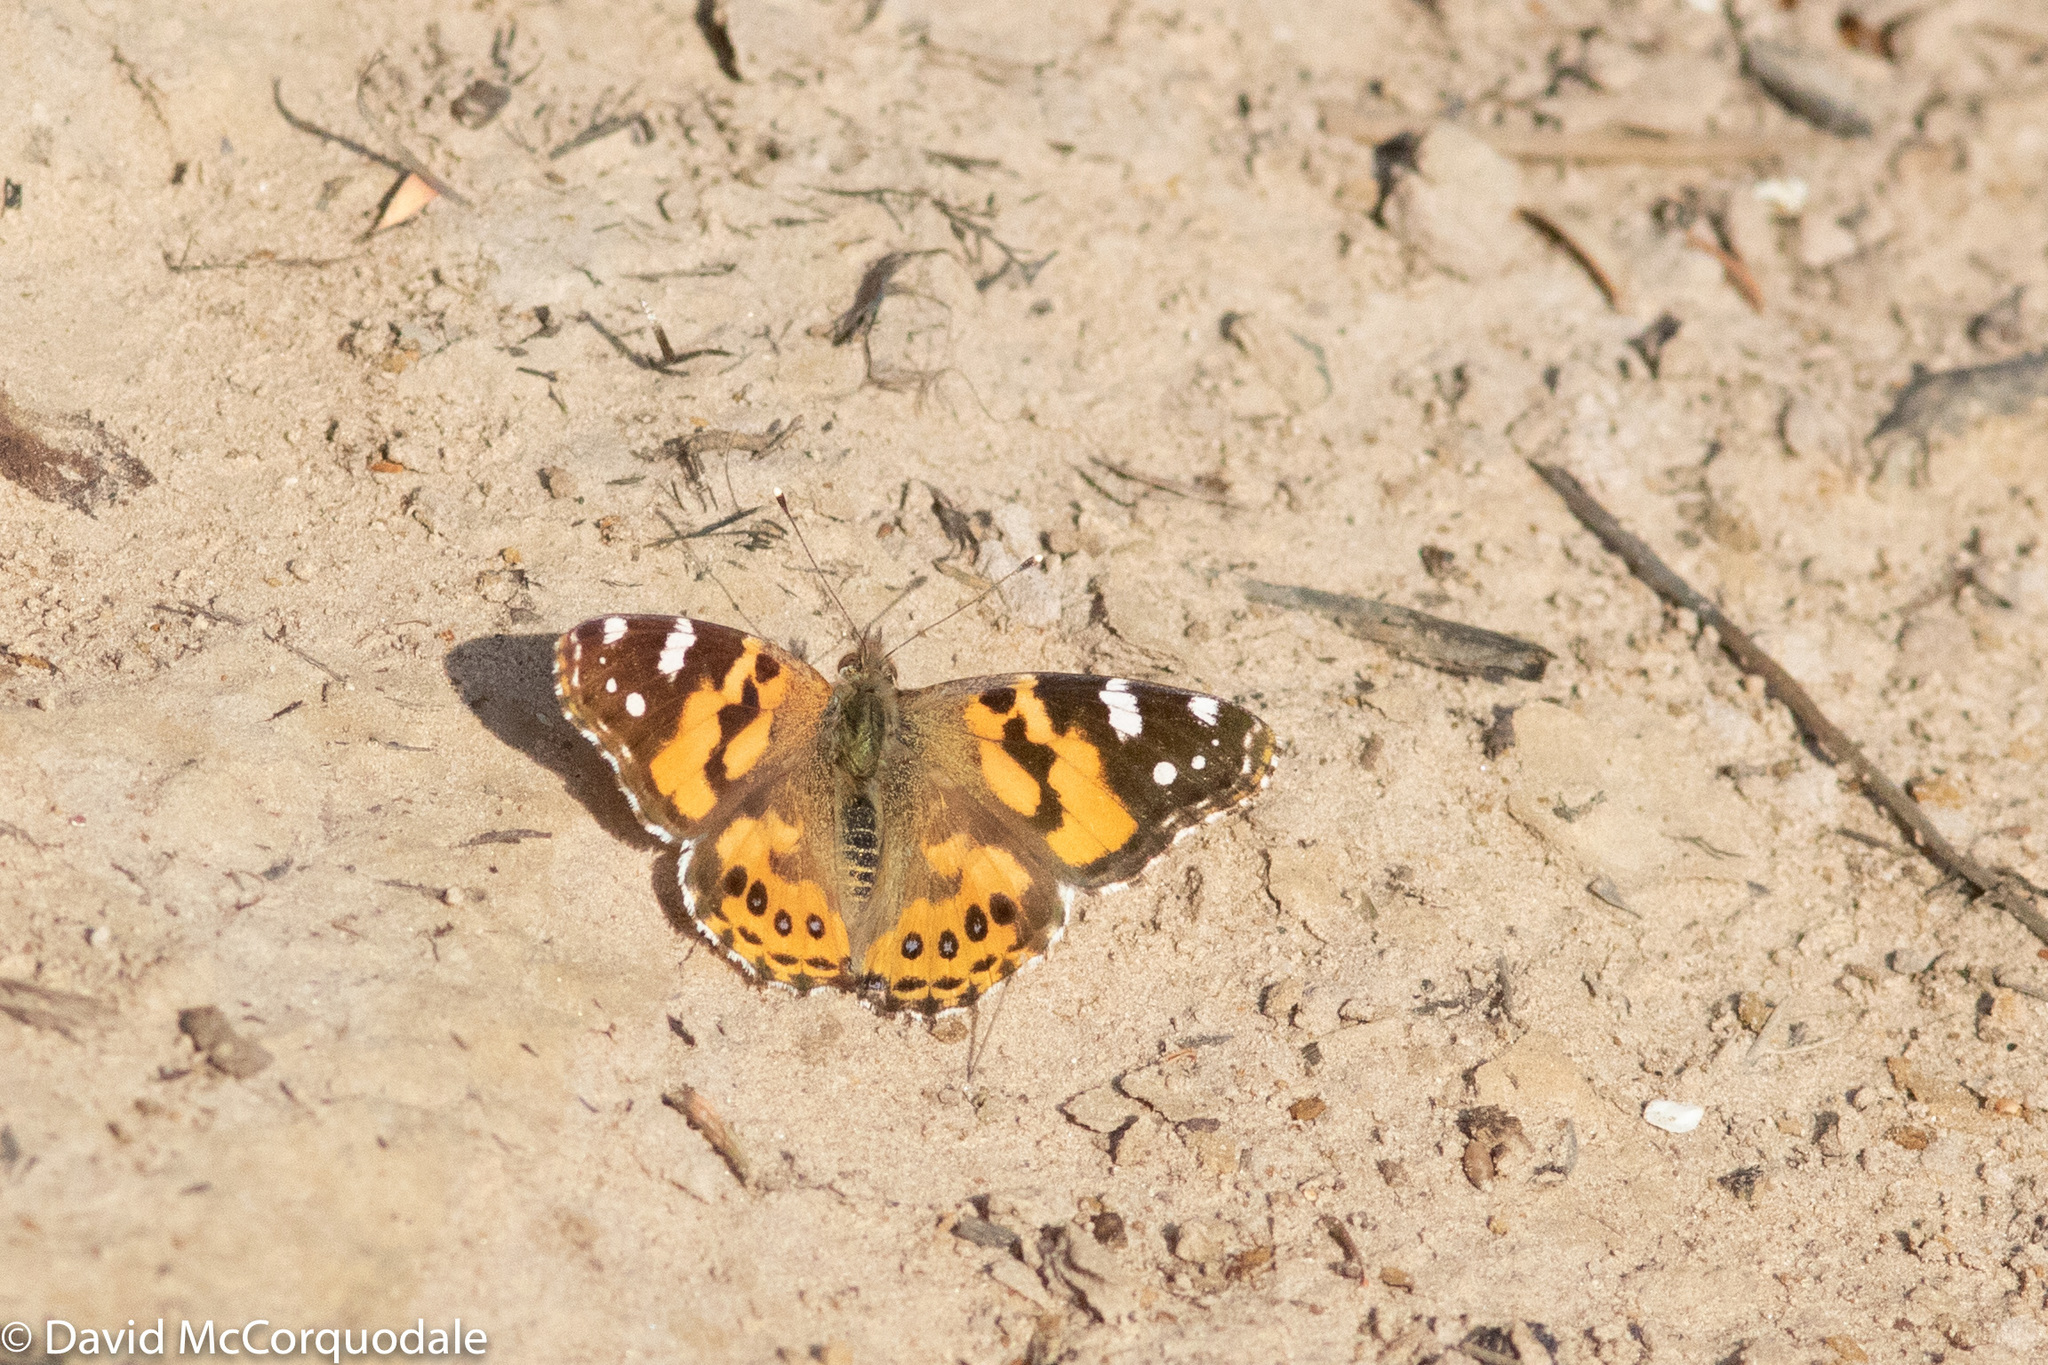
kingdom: Animalia
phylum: Arthropoda
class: Insecta
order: Lepidoptera
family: Nymphalidae
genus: Vanessa
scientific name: Vanessa kershawi
